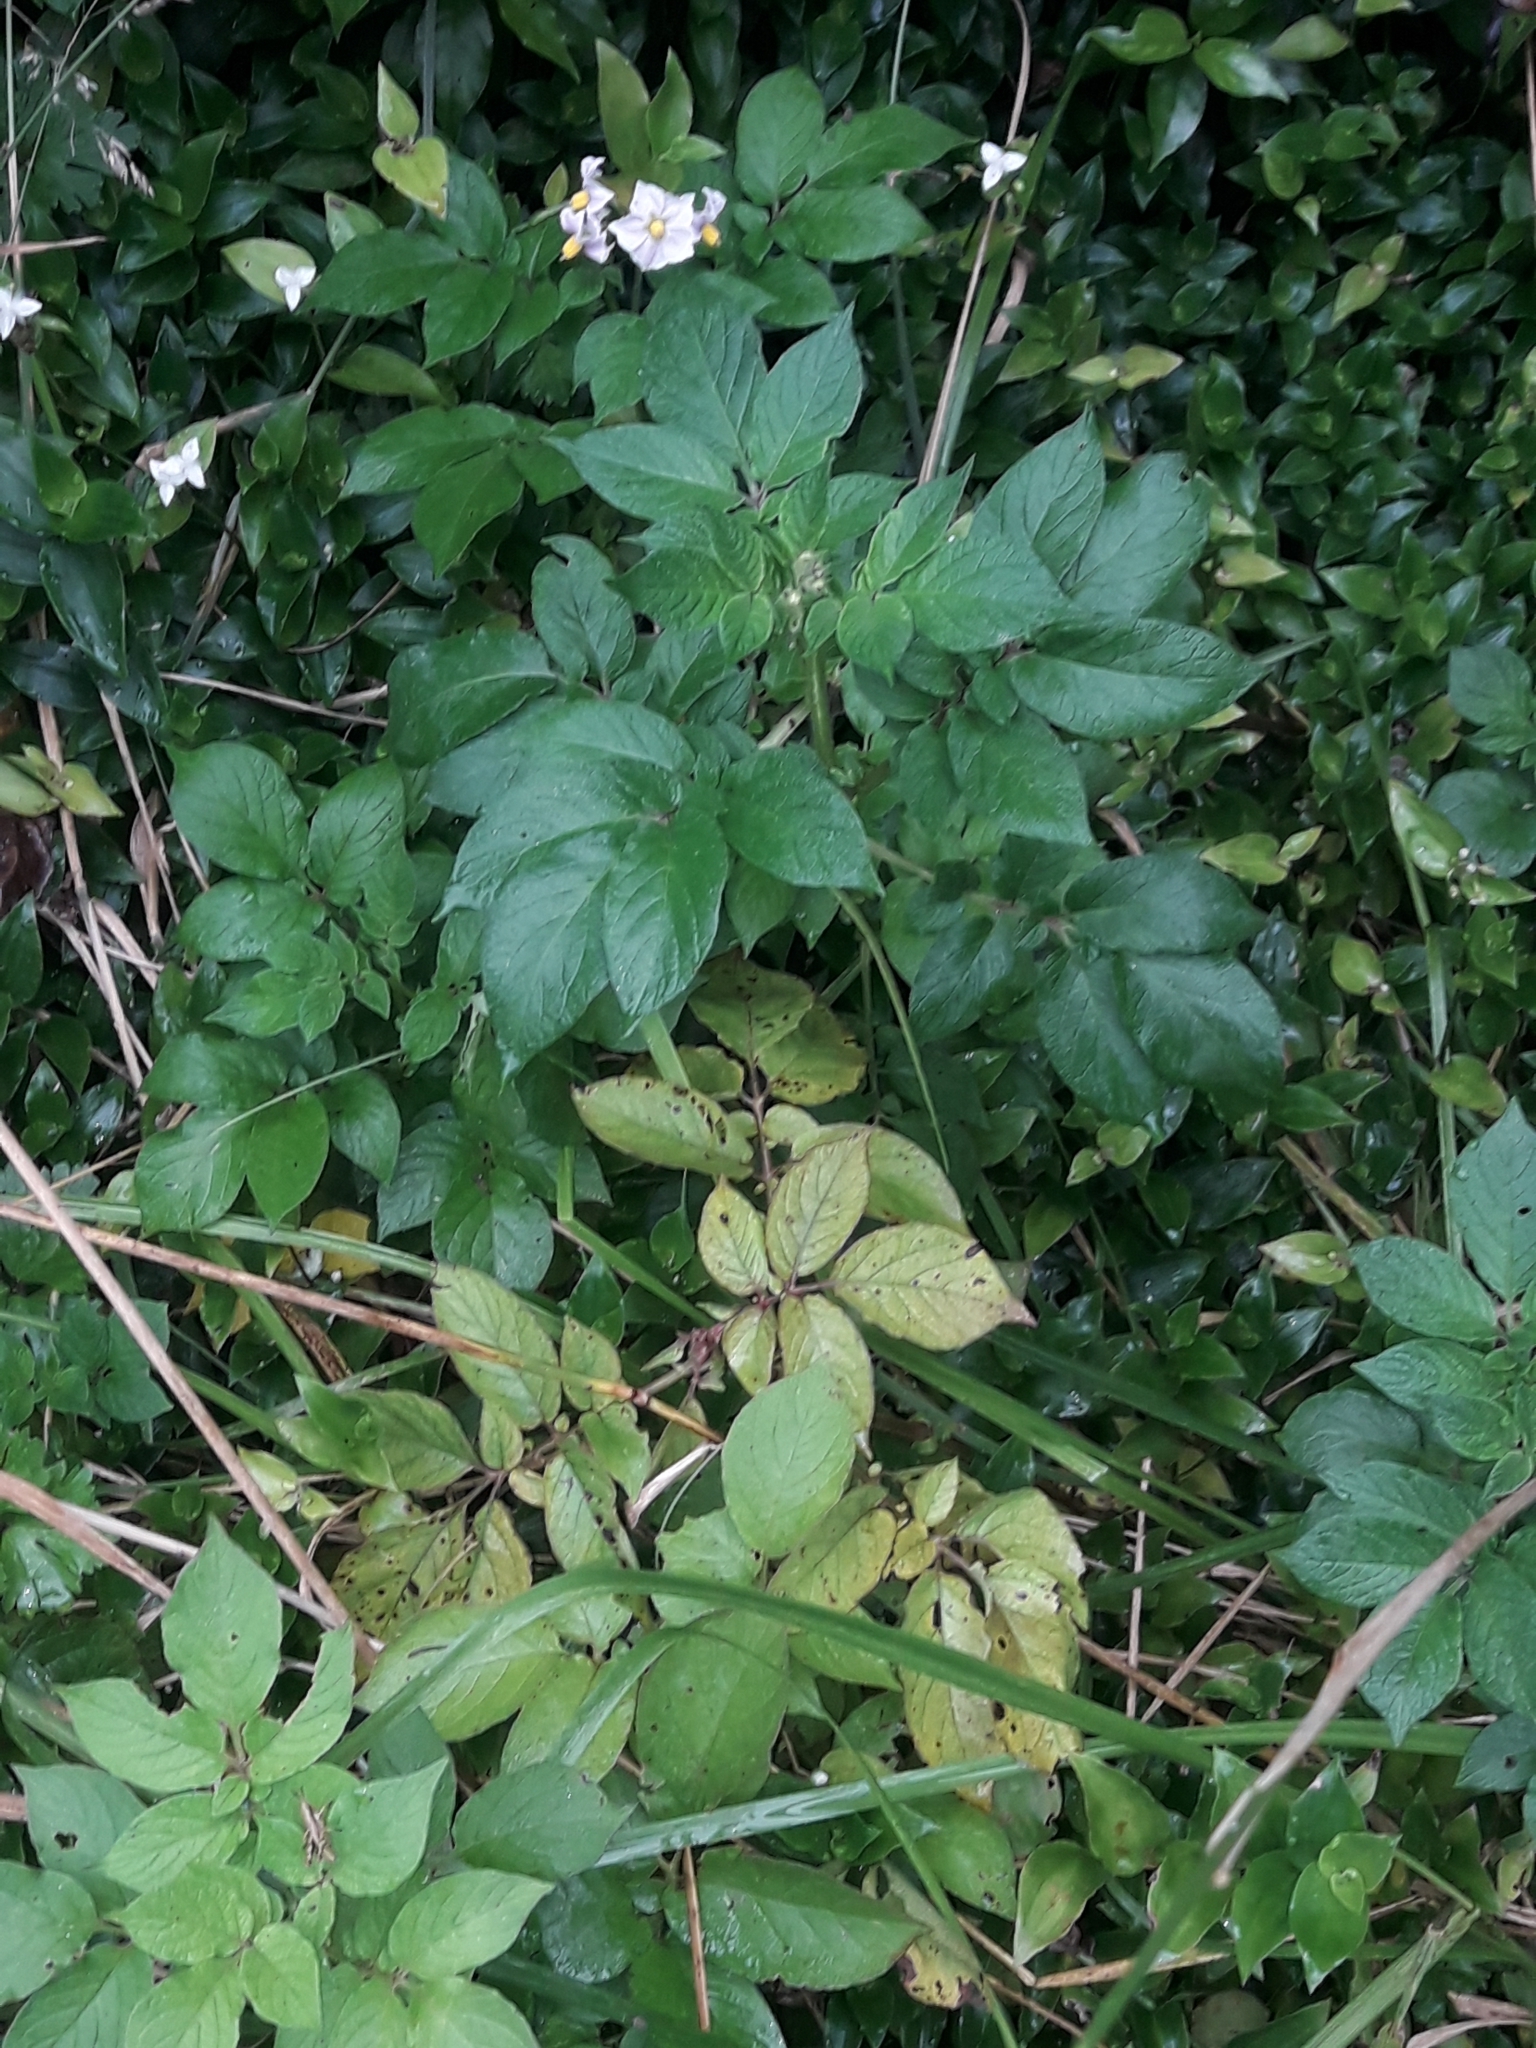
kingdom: Plantae
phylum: Tracheophyta
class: Magnoliopsida
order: Solanales
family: Solanaceae
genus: Solanum
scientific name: Solanum tuberosum
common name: Potato
